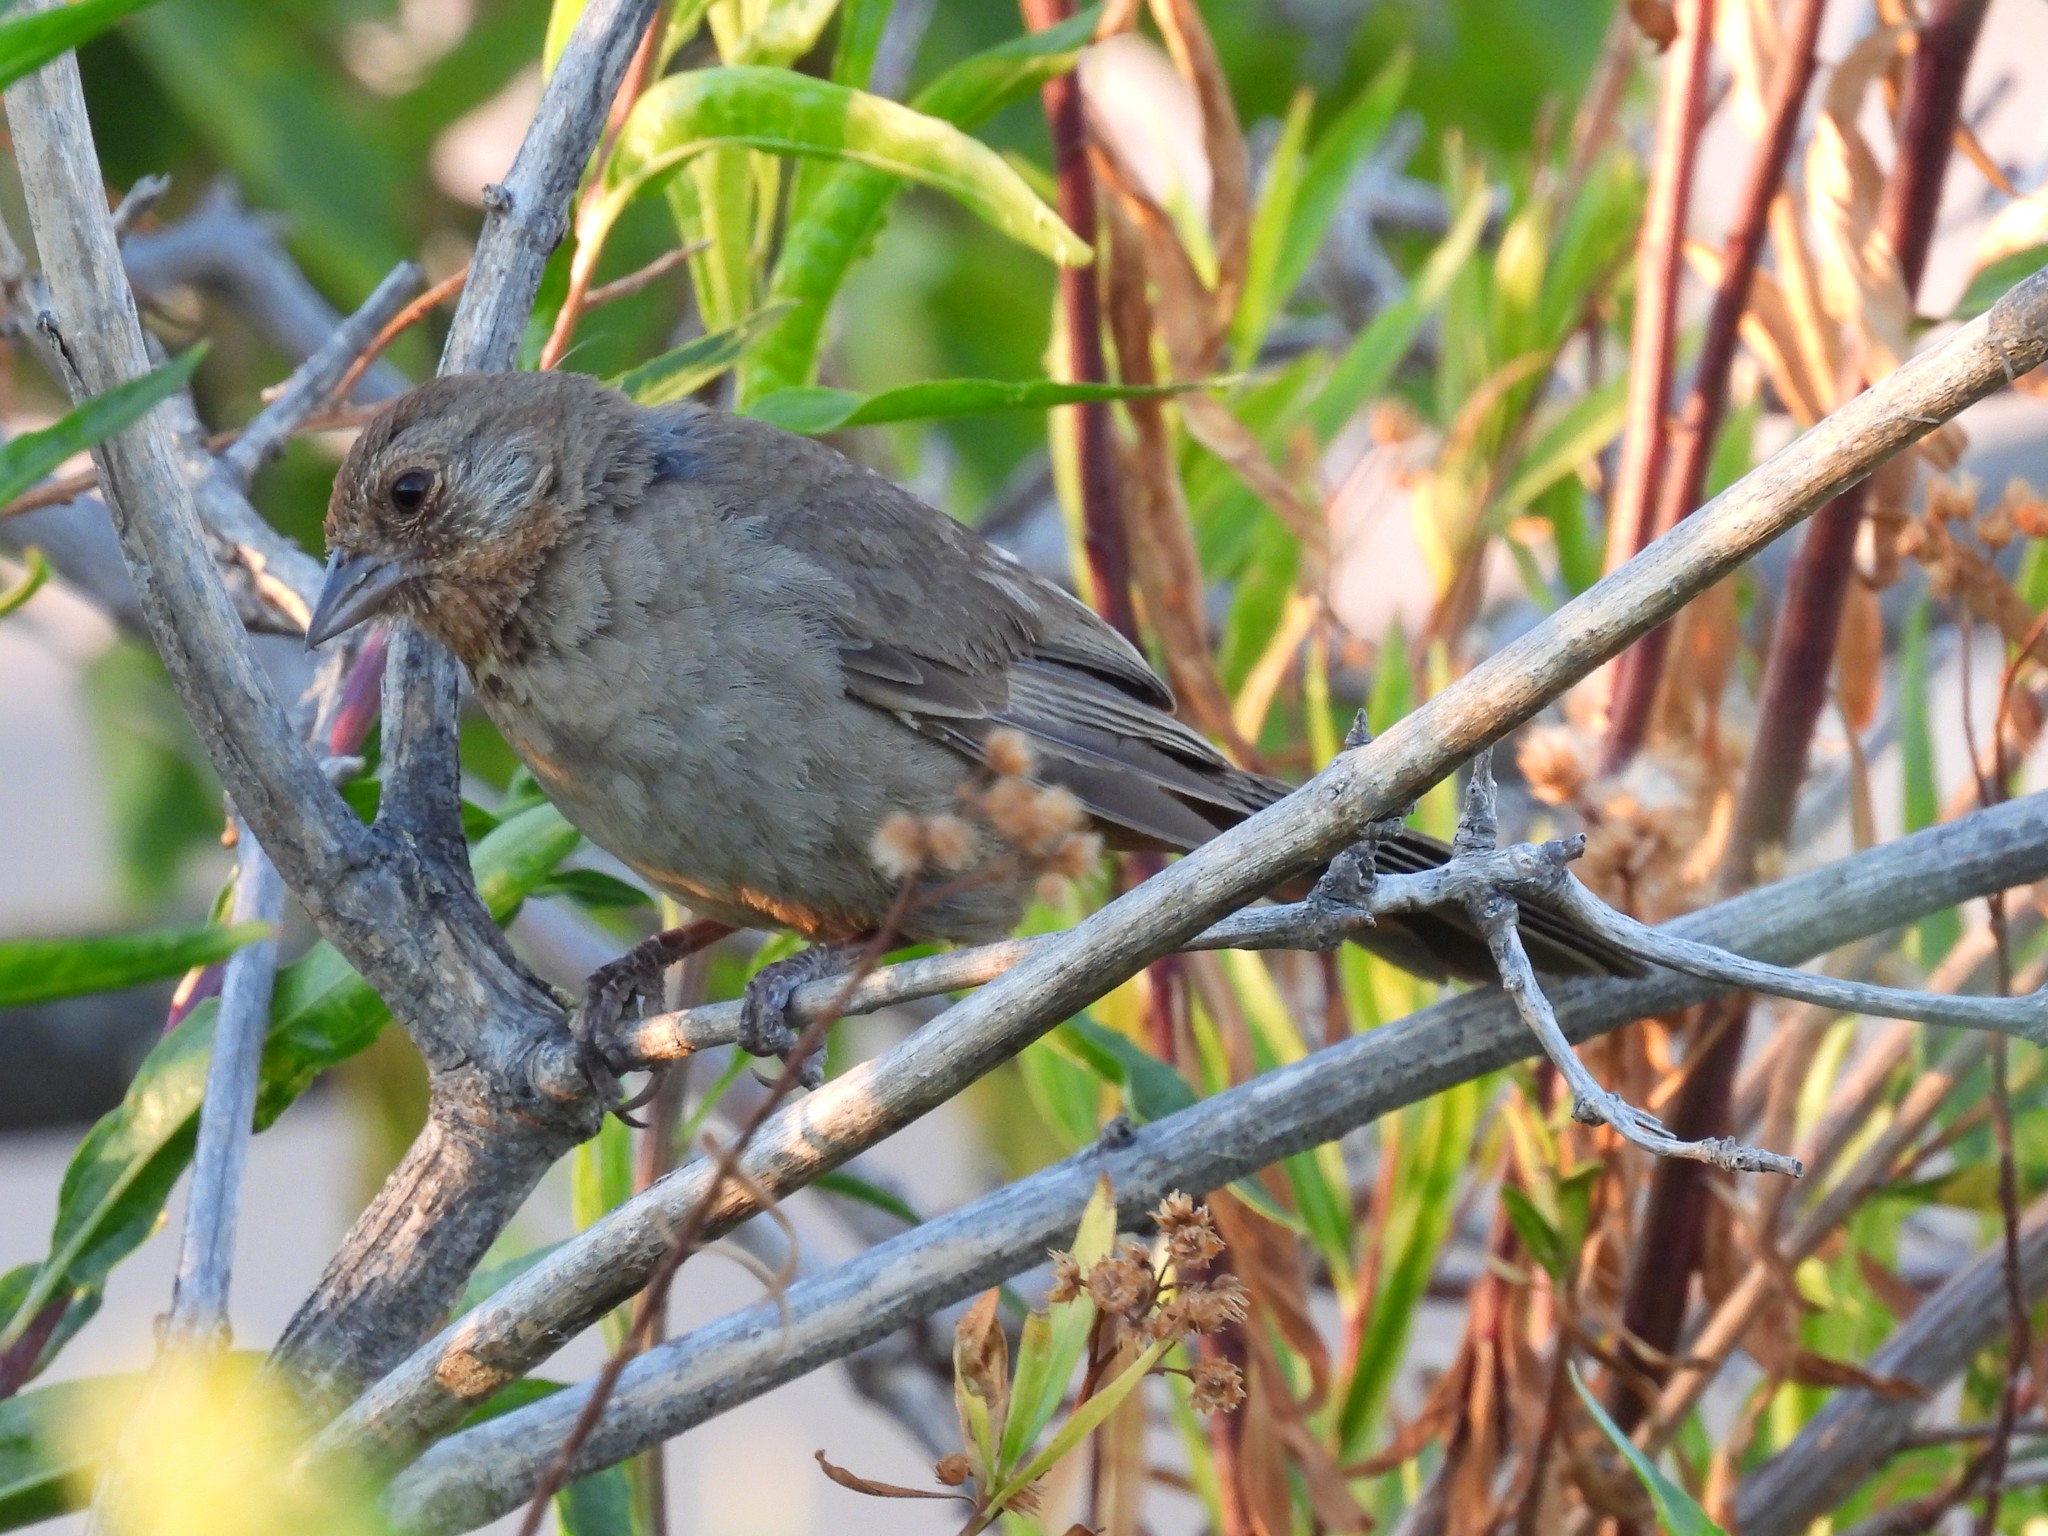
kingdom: Animalia
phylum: Chordata
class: Aves
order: Passeriformes
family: Passerellidae
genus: Melozone
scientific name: Melozone crissalis
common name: California towhee
